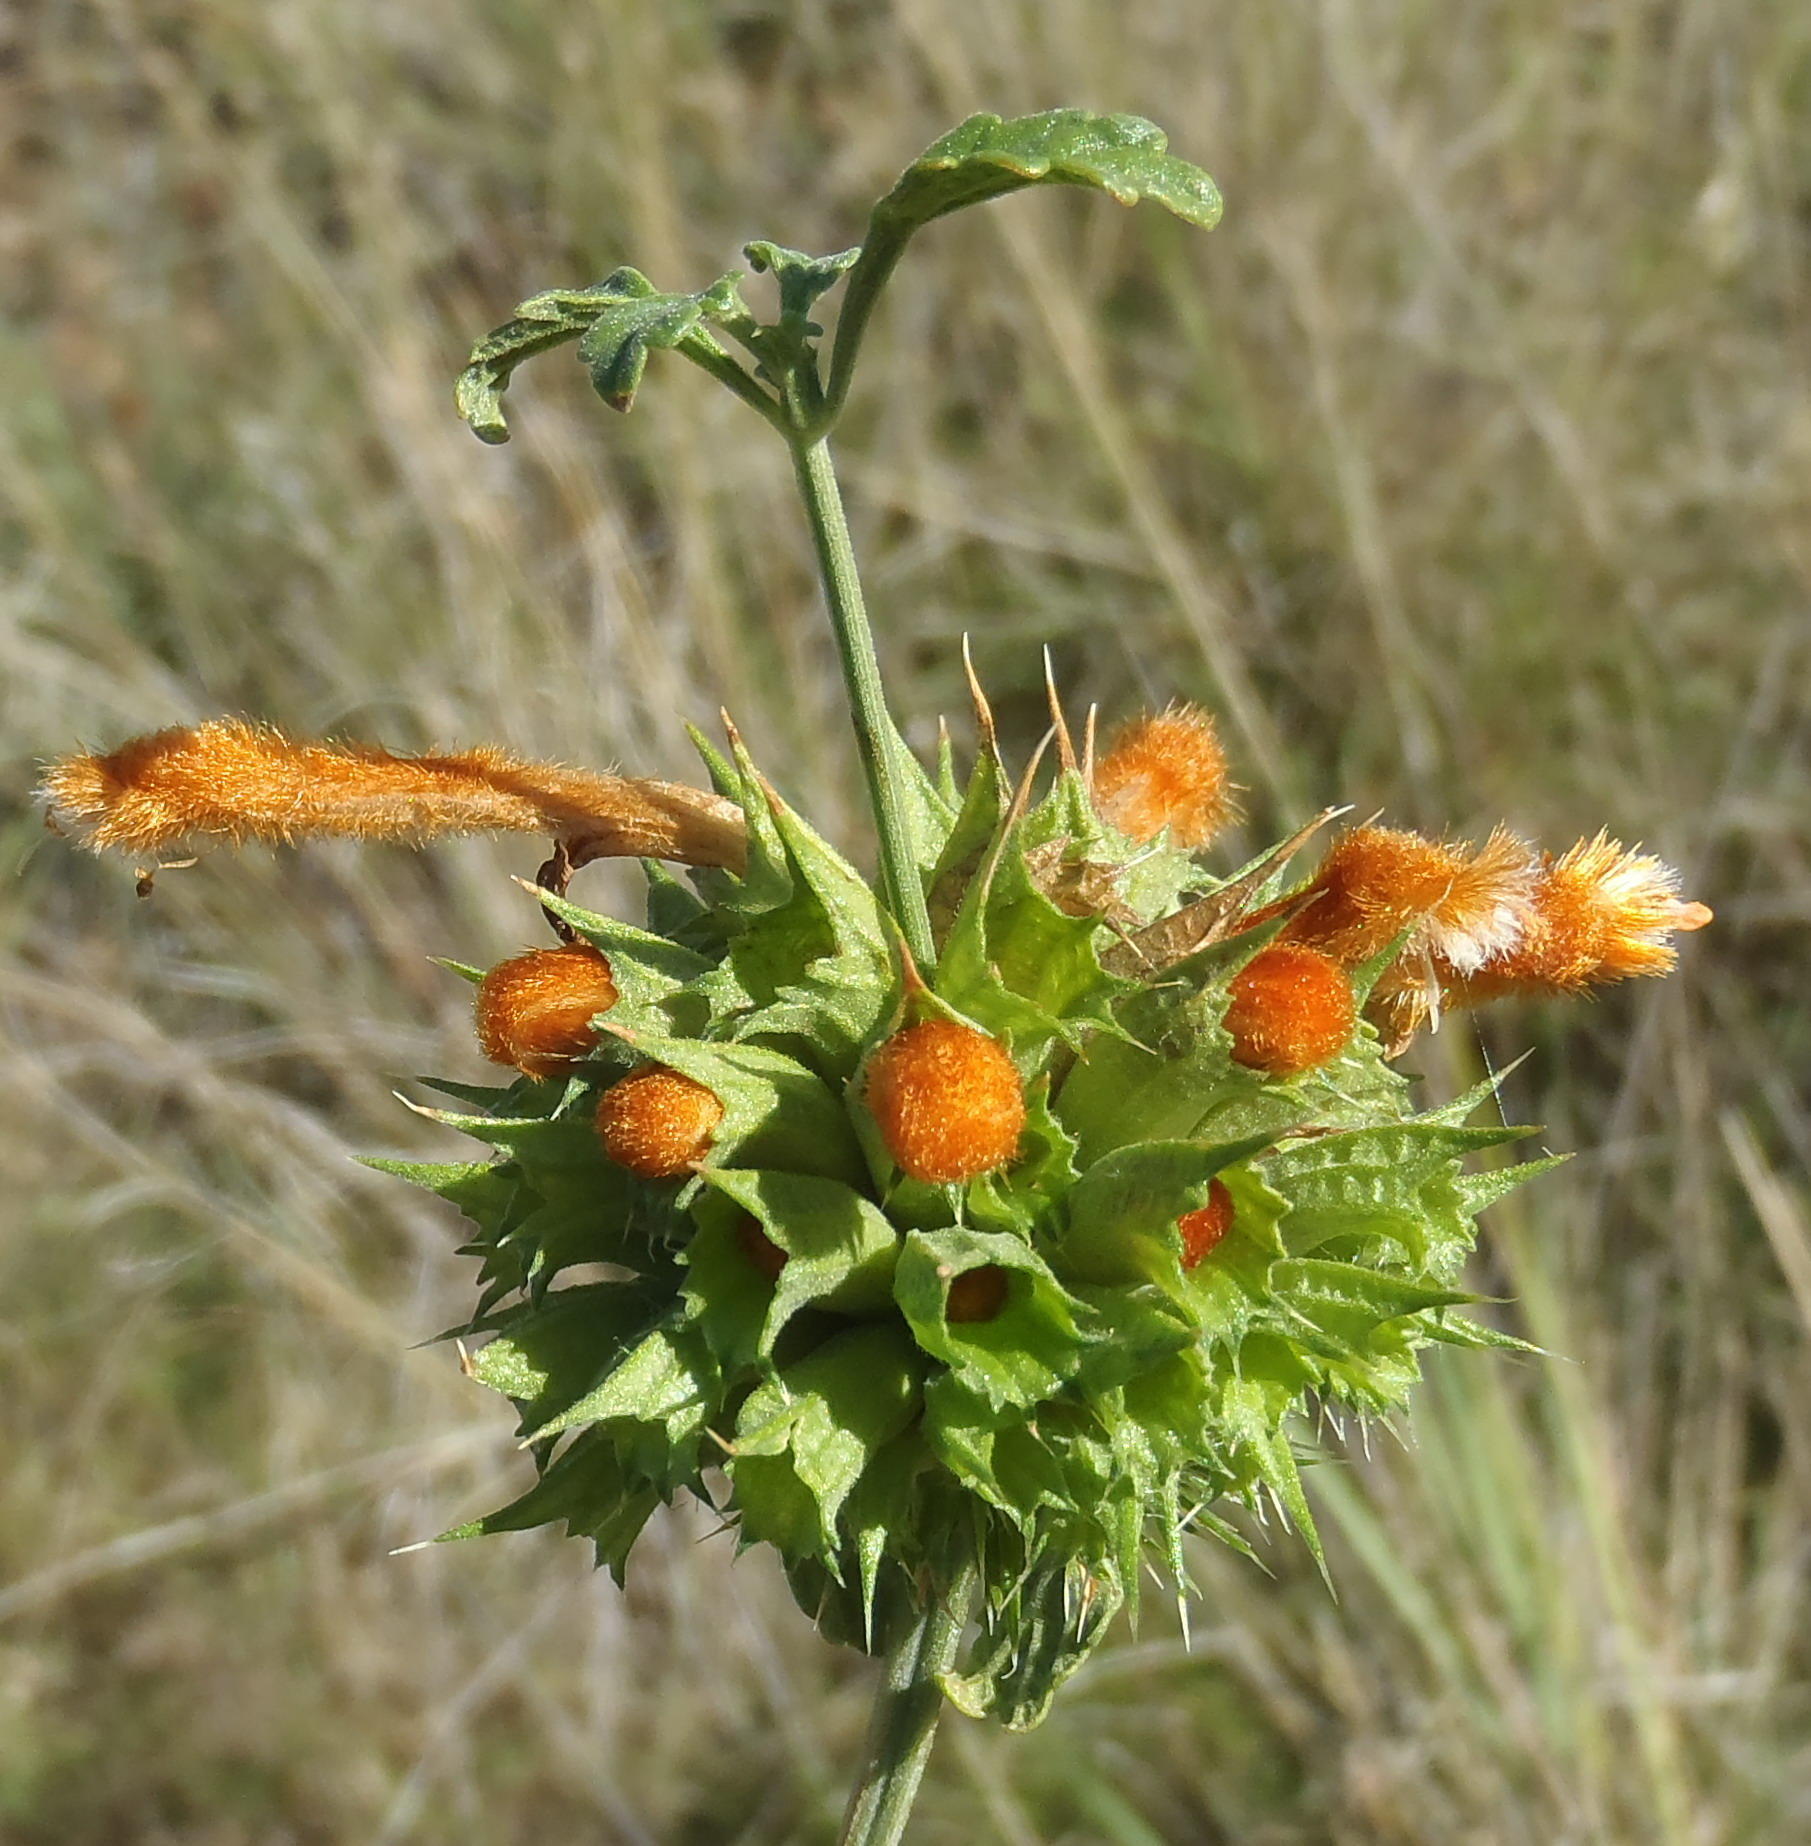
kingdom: Plantae
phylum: Tracheophyta
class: Magnoliopsida
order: Lamiales
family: Lamiaceae
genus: Leonotis
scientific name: Leonotis ocymifolia
